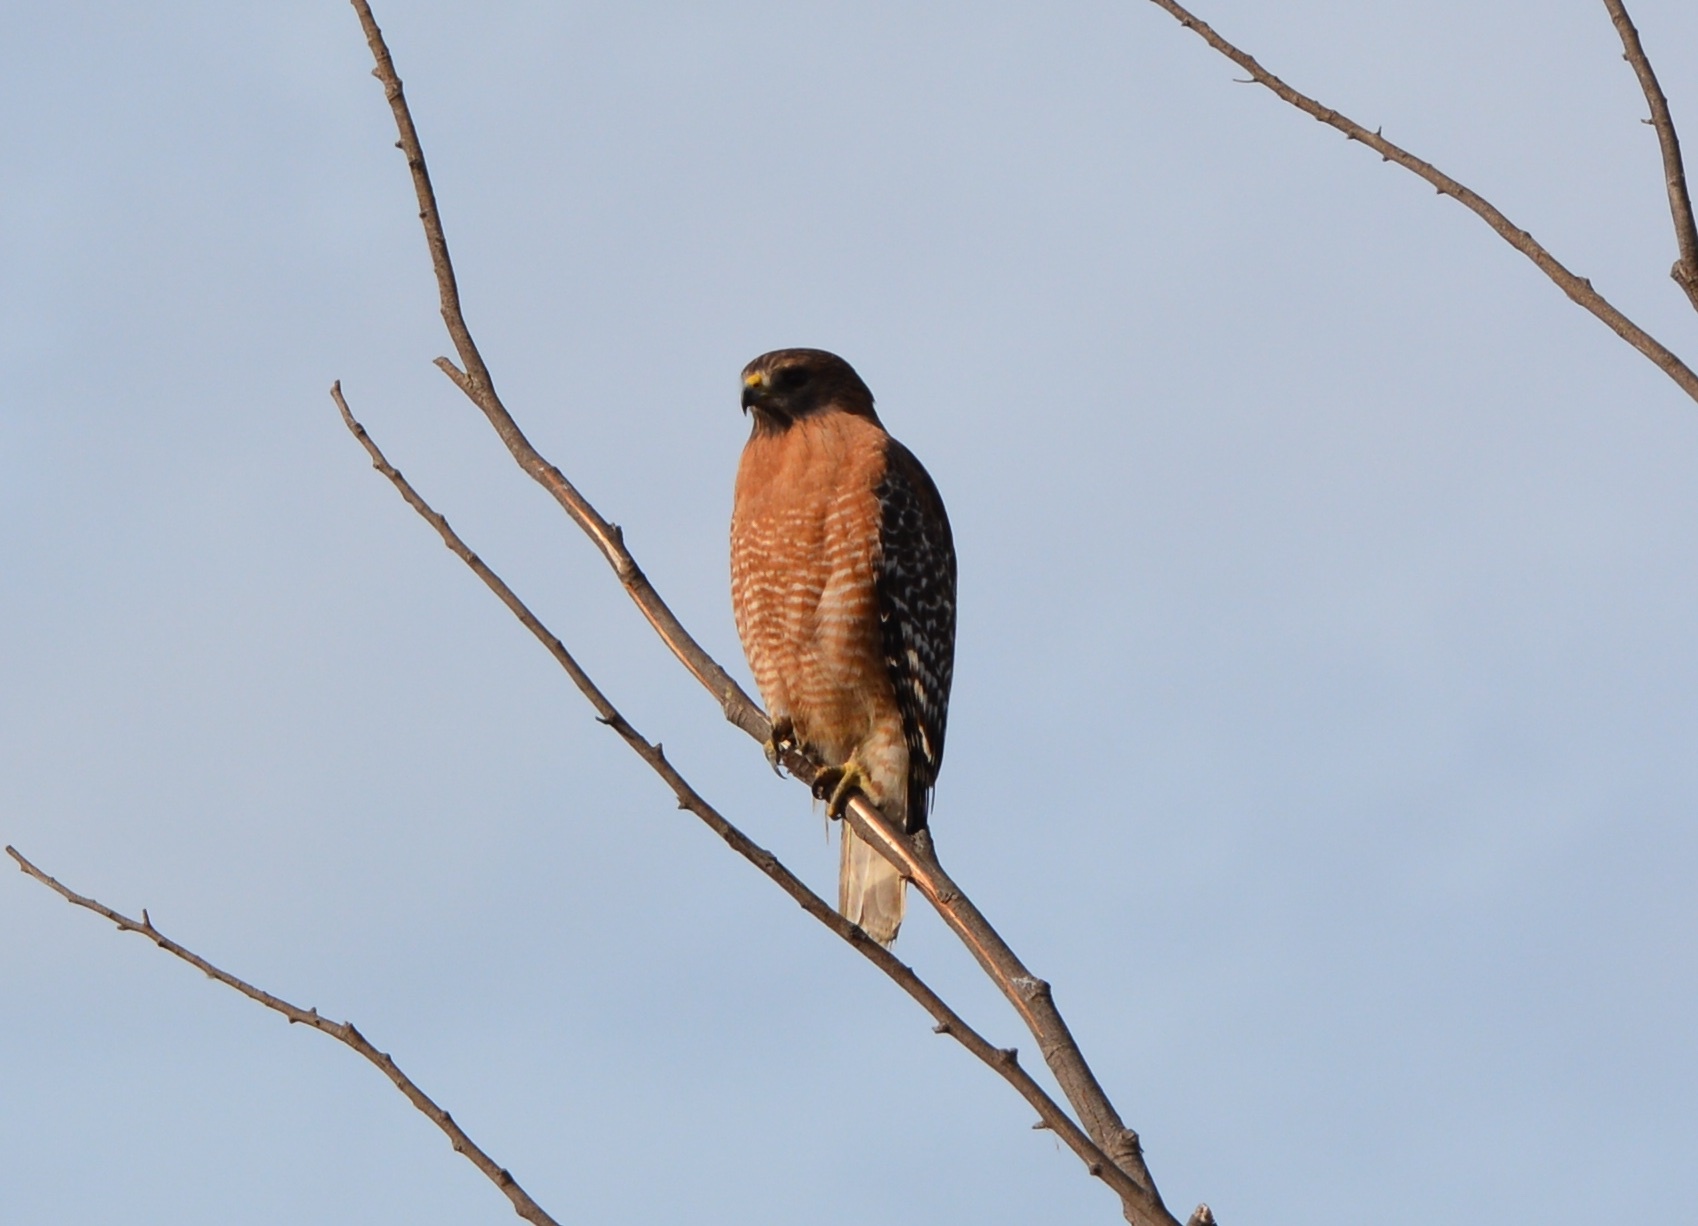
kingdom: Animalia
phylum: Chordata
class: Aves
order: Accipitriformes
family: Accipitridae
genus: Buteo
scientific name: Buteo lineatus
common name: Red-shouldered hawk
